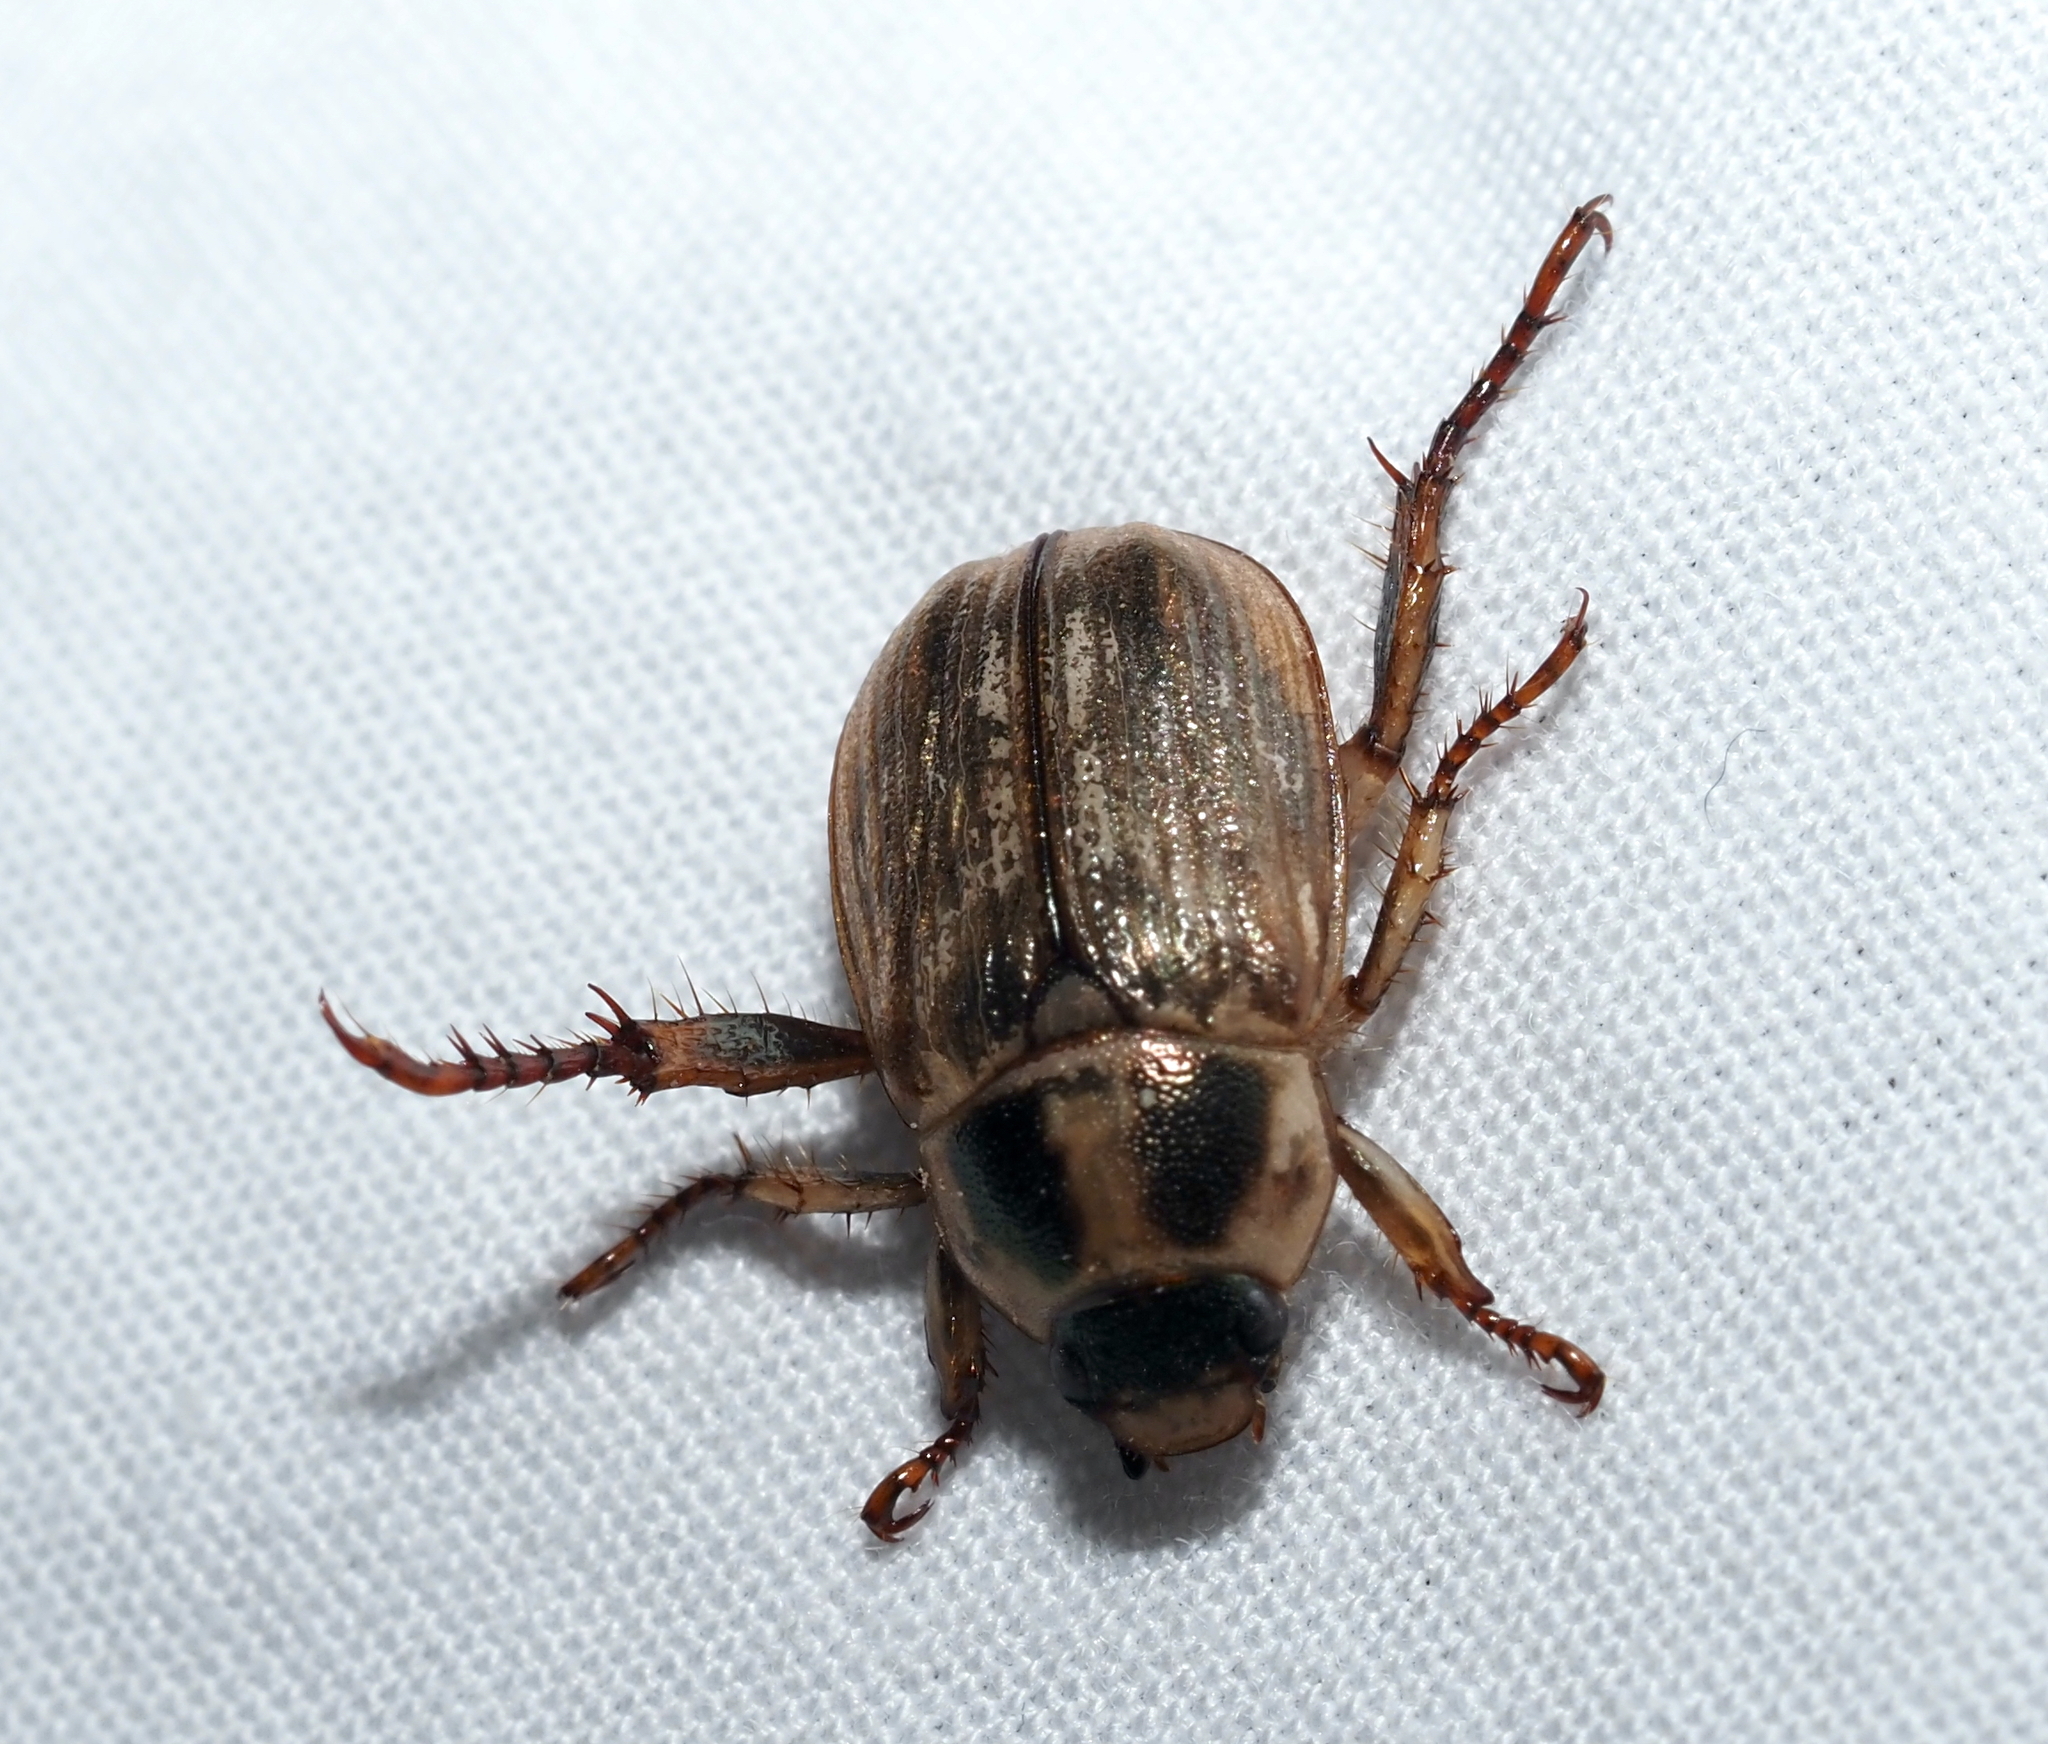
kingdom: Animalia
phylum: Arthropoda
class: Insecta
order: Coleoptera
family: Scarabaeidae
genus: Exomala
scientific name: Exomala orientalis
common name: Oriental beetle
